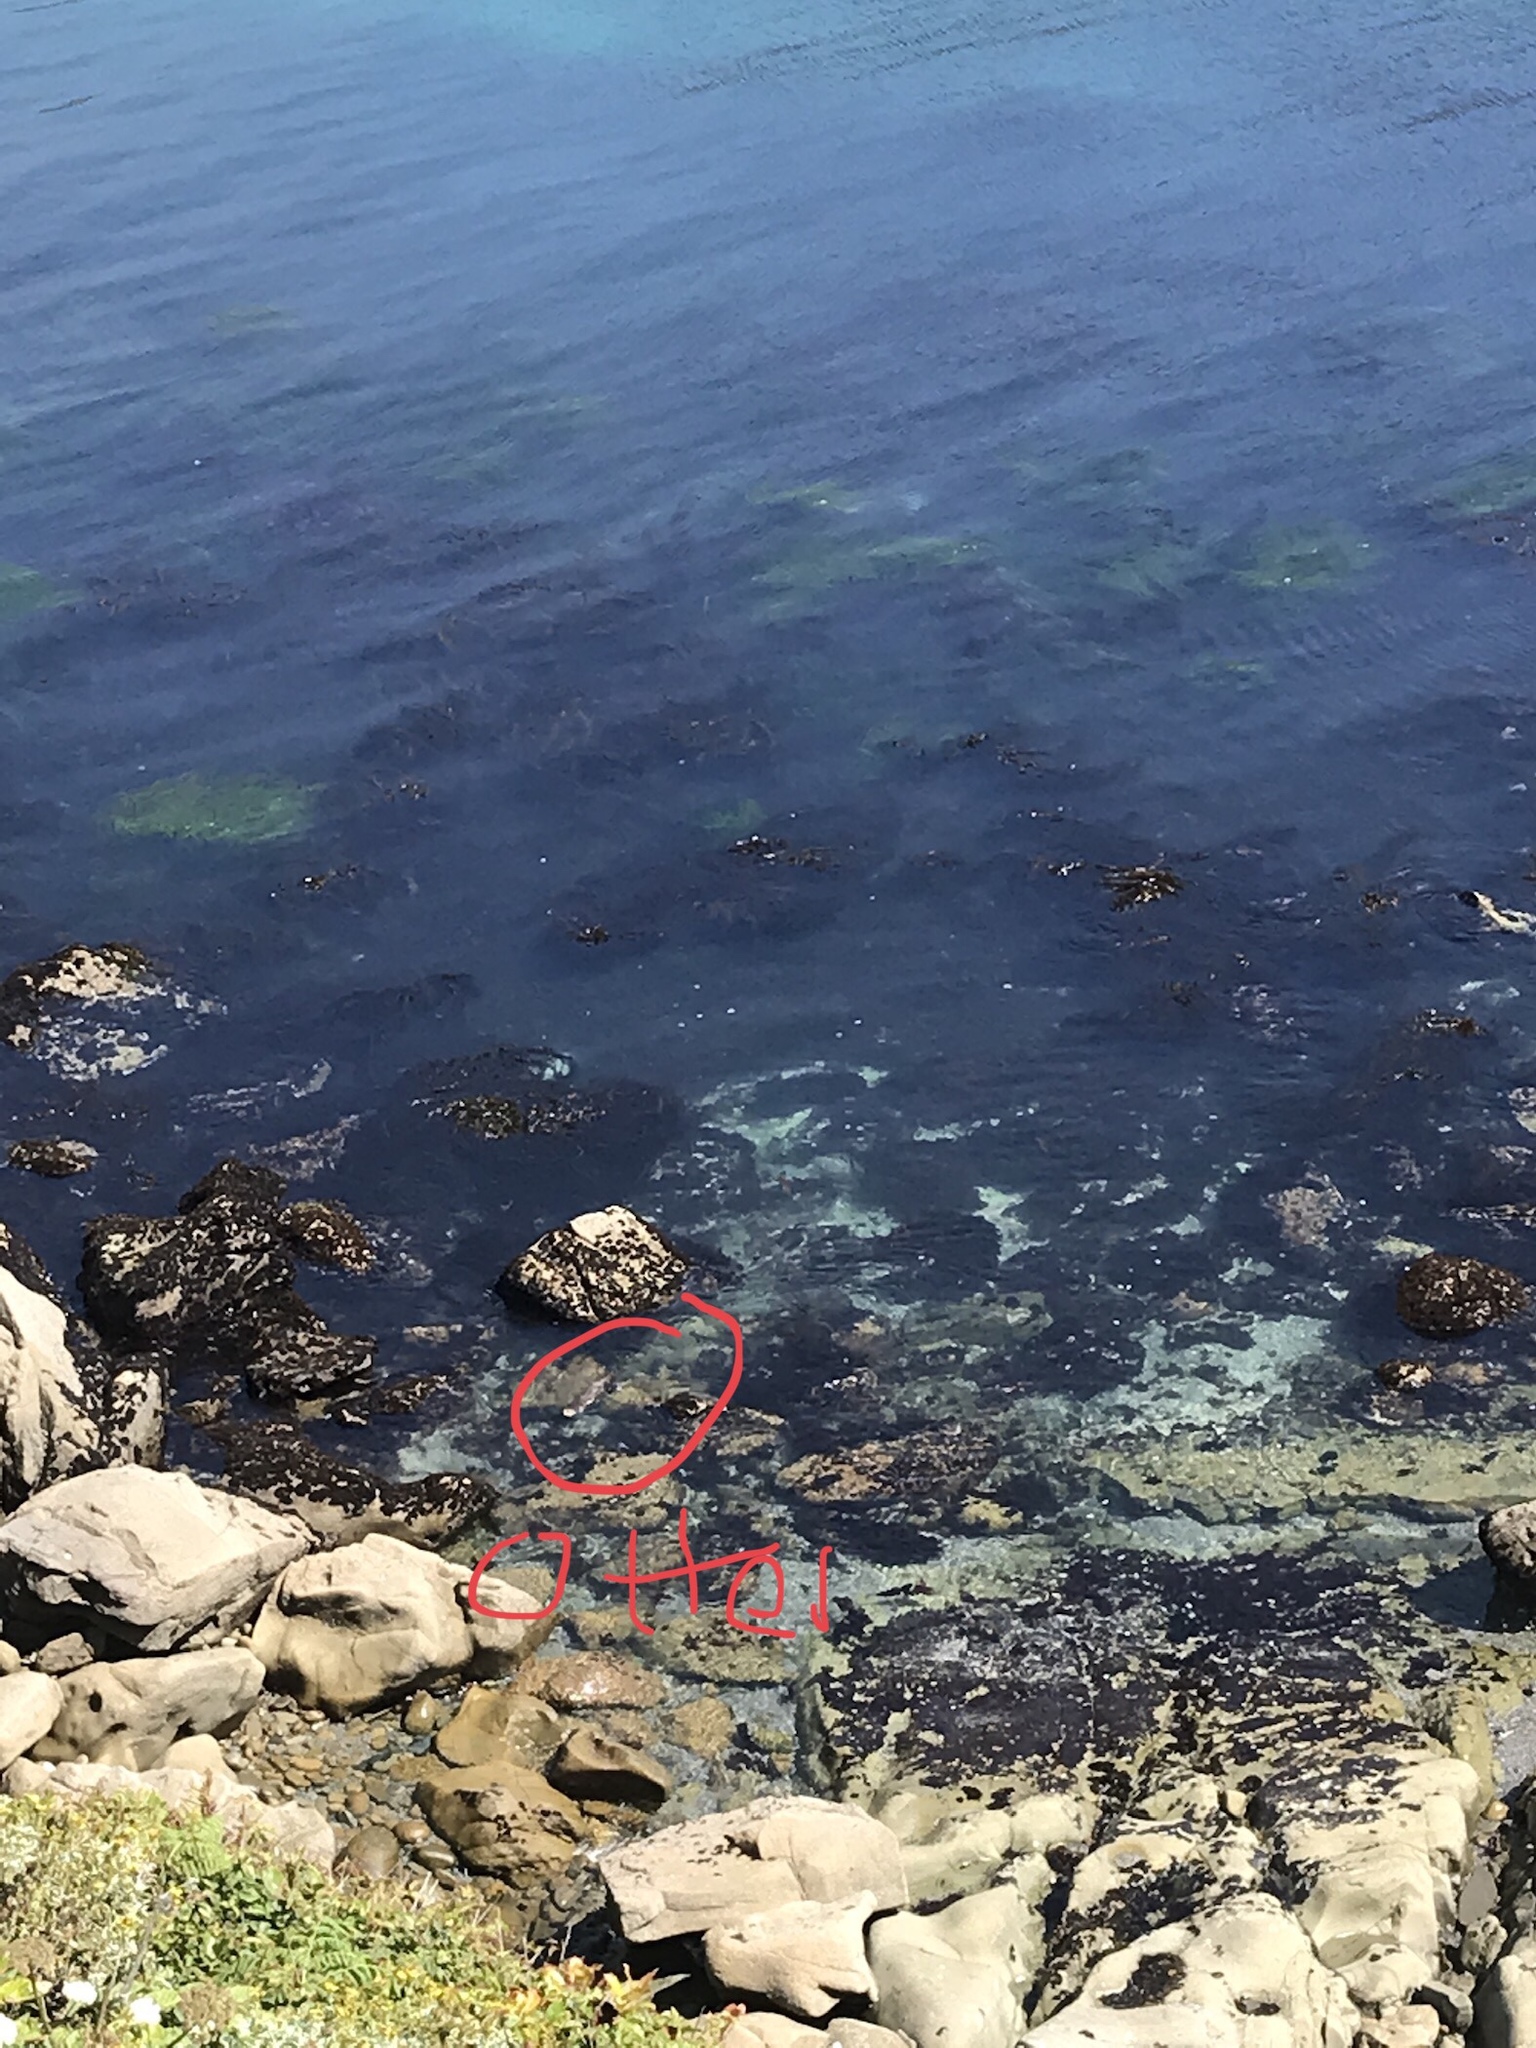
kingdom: Animalia
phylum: Chordata
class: Mammalia
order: Carnivora
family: Mustelidae
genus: Lontra
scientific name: Lontra canadensis
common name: North american river otter
